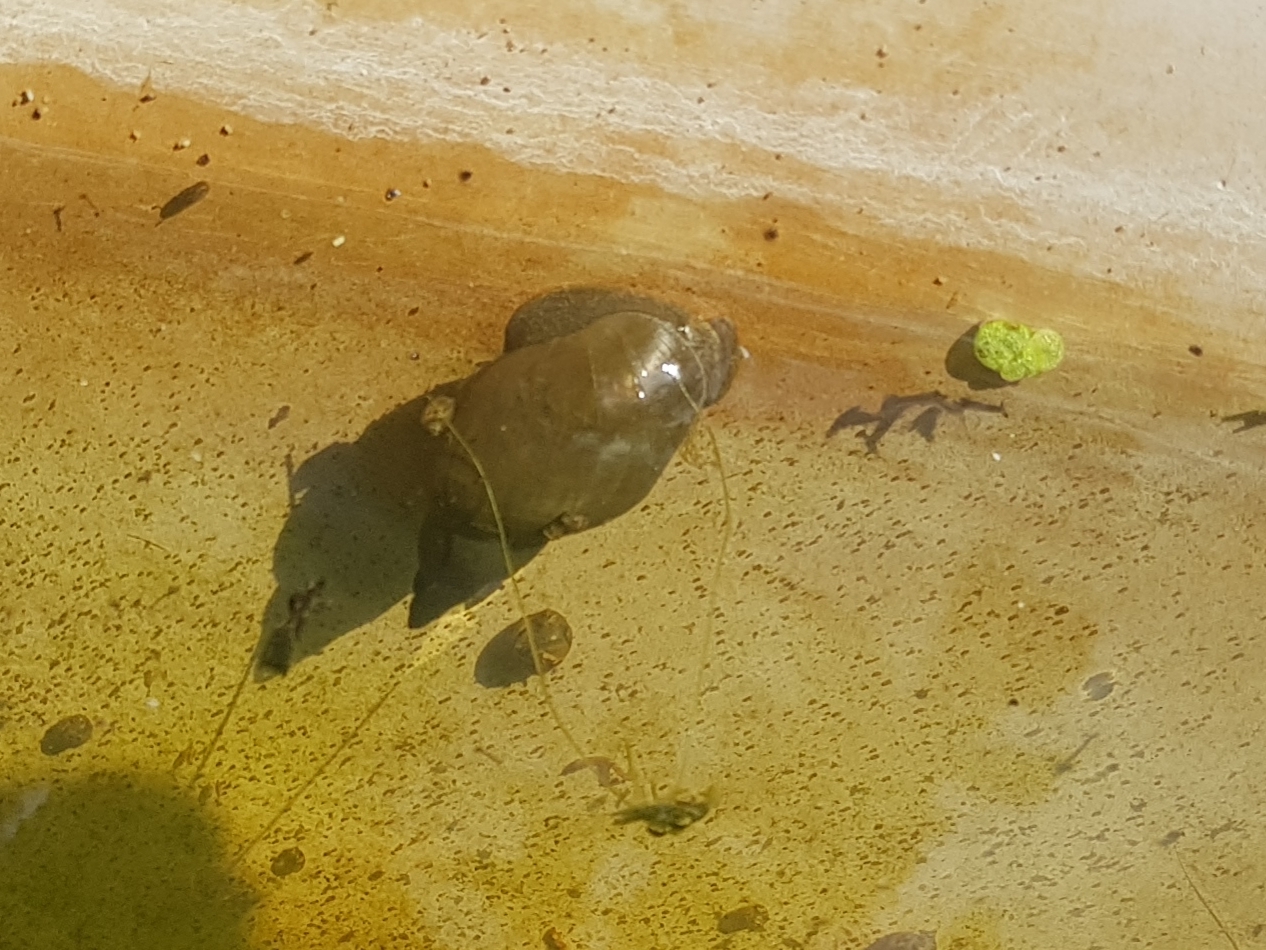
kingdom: Animalia
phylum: Mollusca
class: Gastropoda
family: Lymnaeidae
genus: Lymnaea
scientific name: Lymnaea stagnalis
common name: Great pond snail
